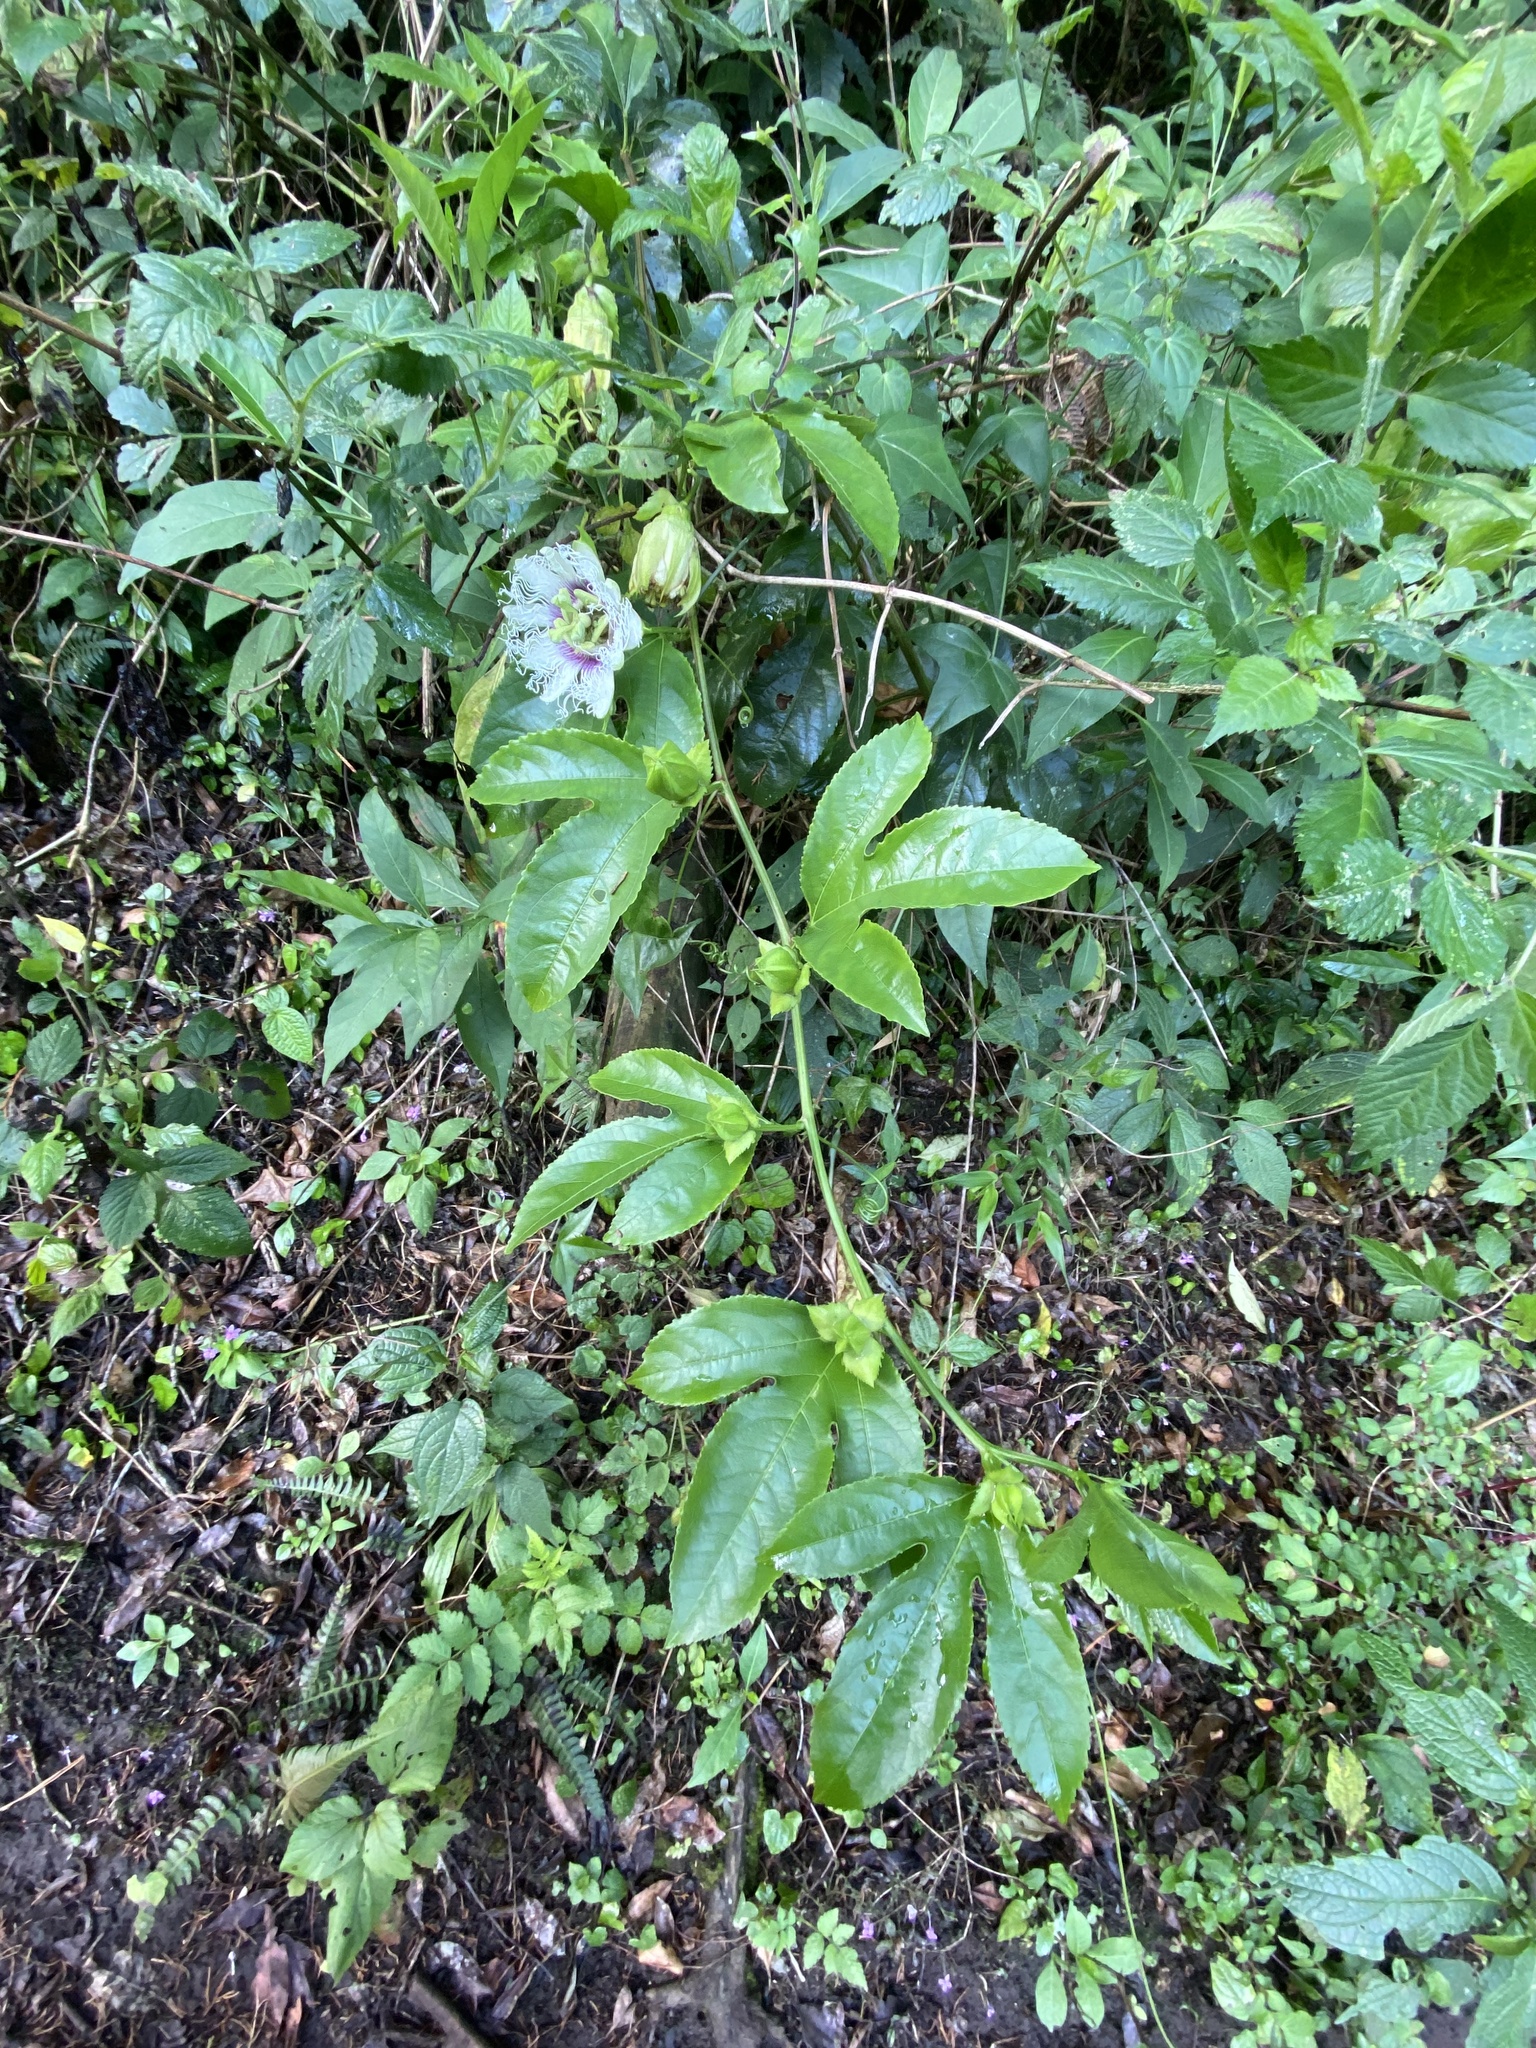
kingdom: Plantae
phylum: Tracheophyta
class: Magnoliopsida
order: Malpighiales
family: Passifloraceae
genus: Passiflora
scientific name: Passiflora edulis
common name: Purple granadilla
